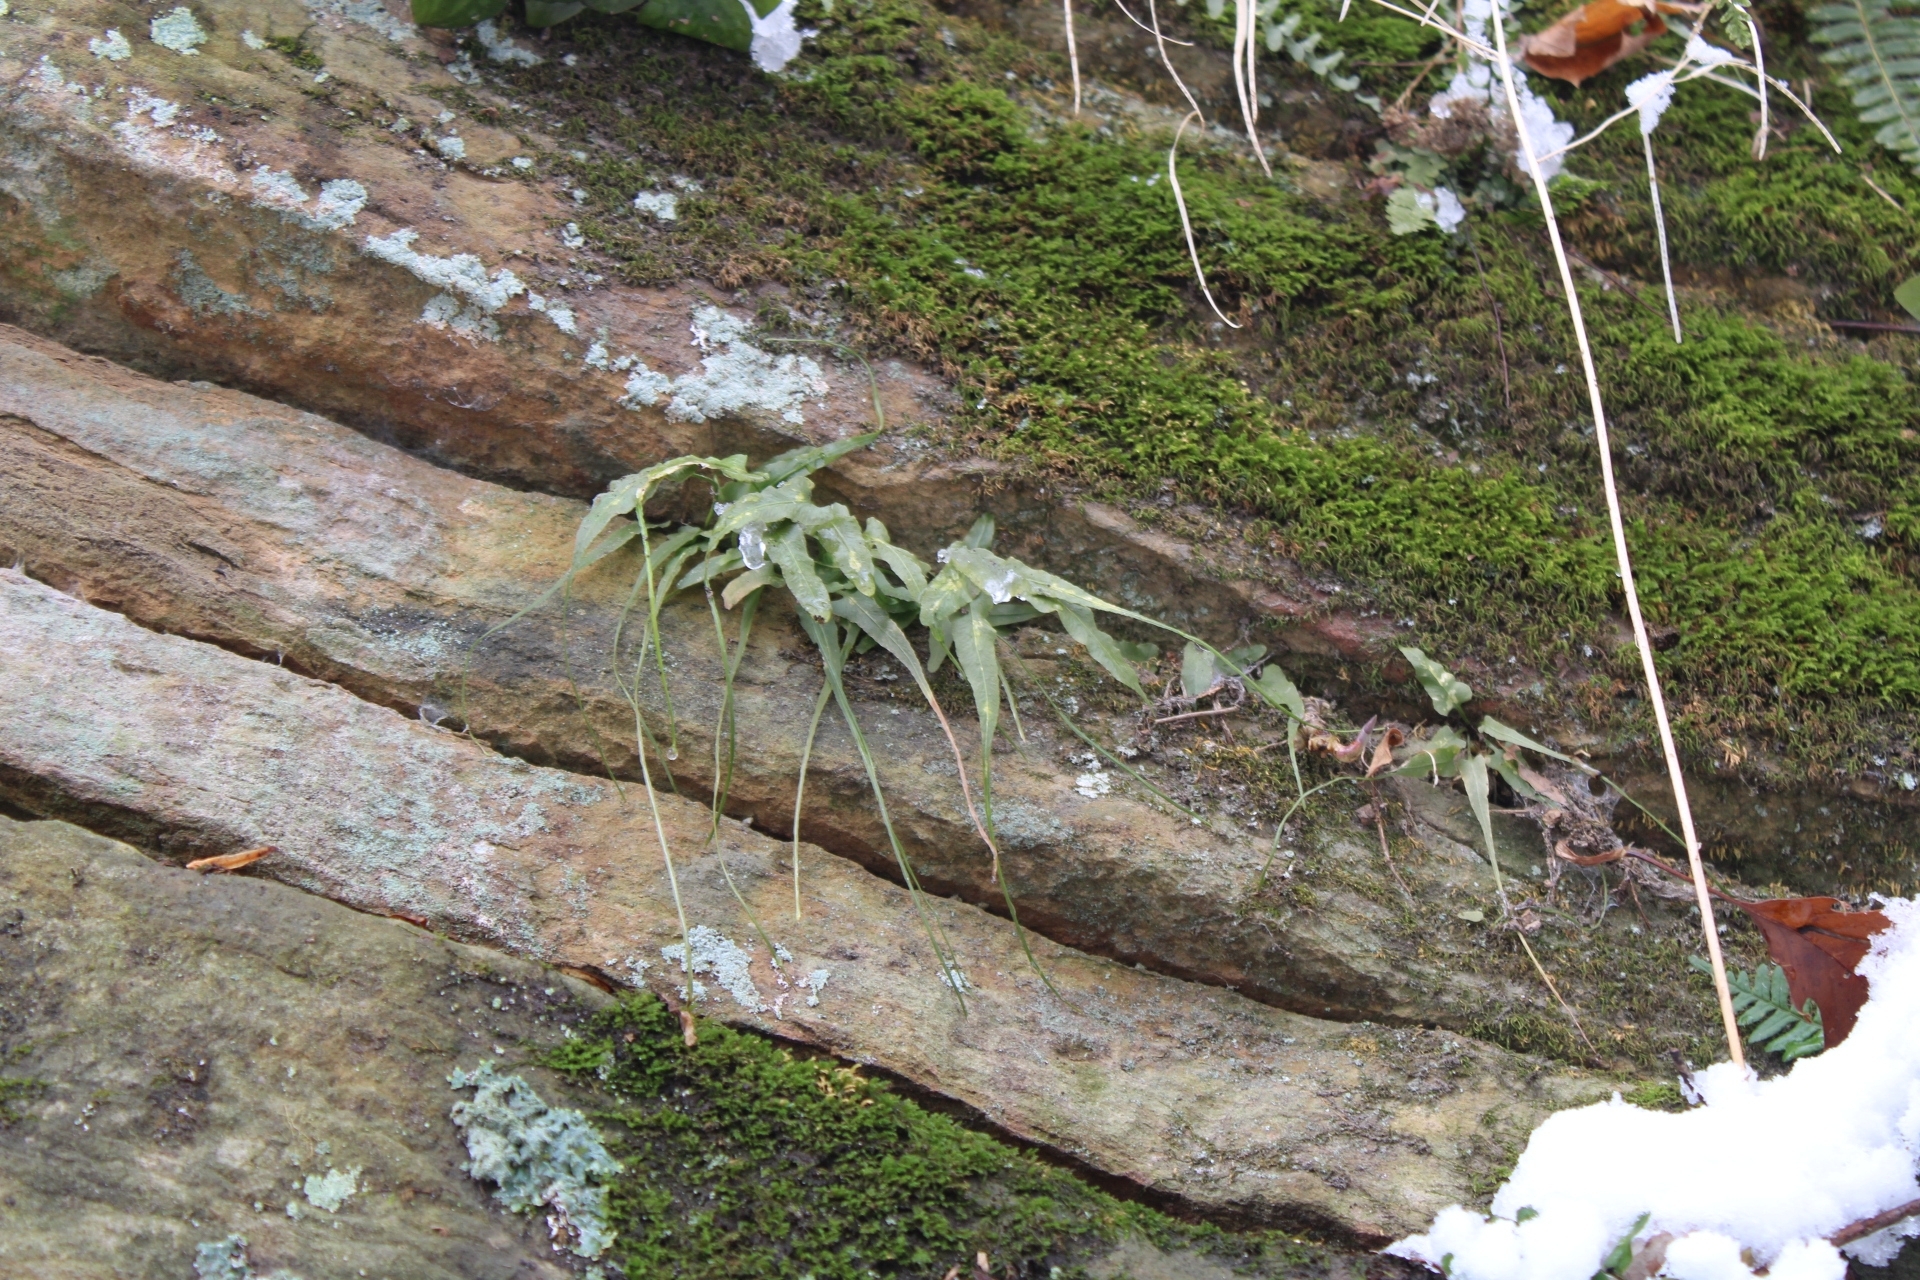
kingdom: Plantae
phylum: Tracheophyta
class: Polypodiopsida
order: Polypodiales
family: Aspleniaceae
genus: Asplenium
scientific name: Asplenium rhizophyllum
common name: Walking fern
